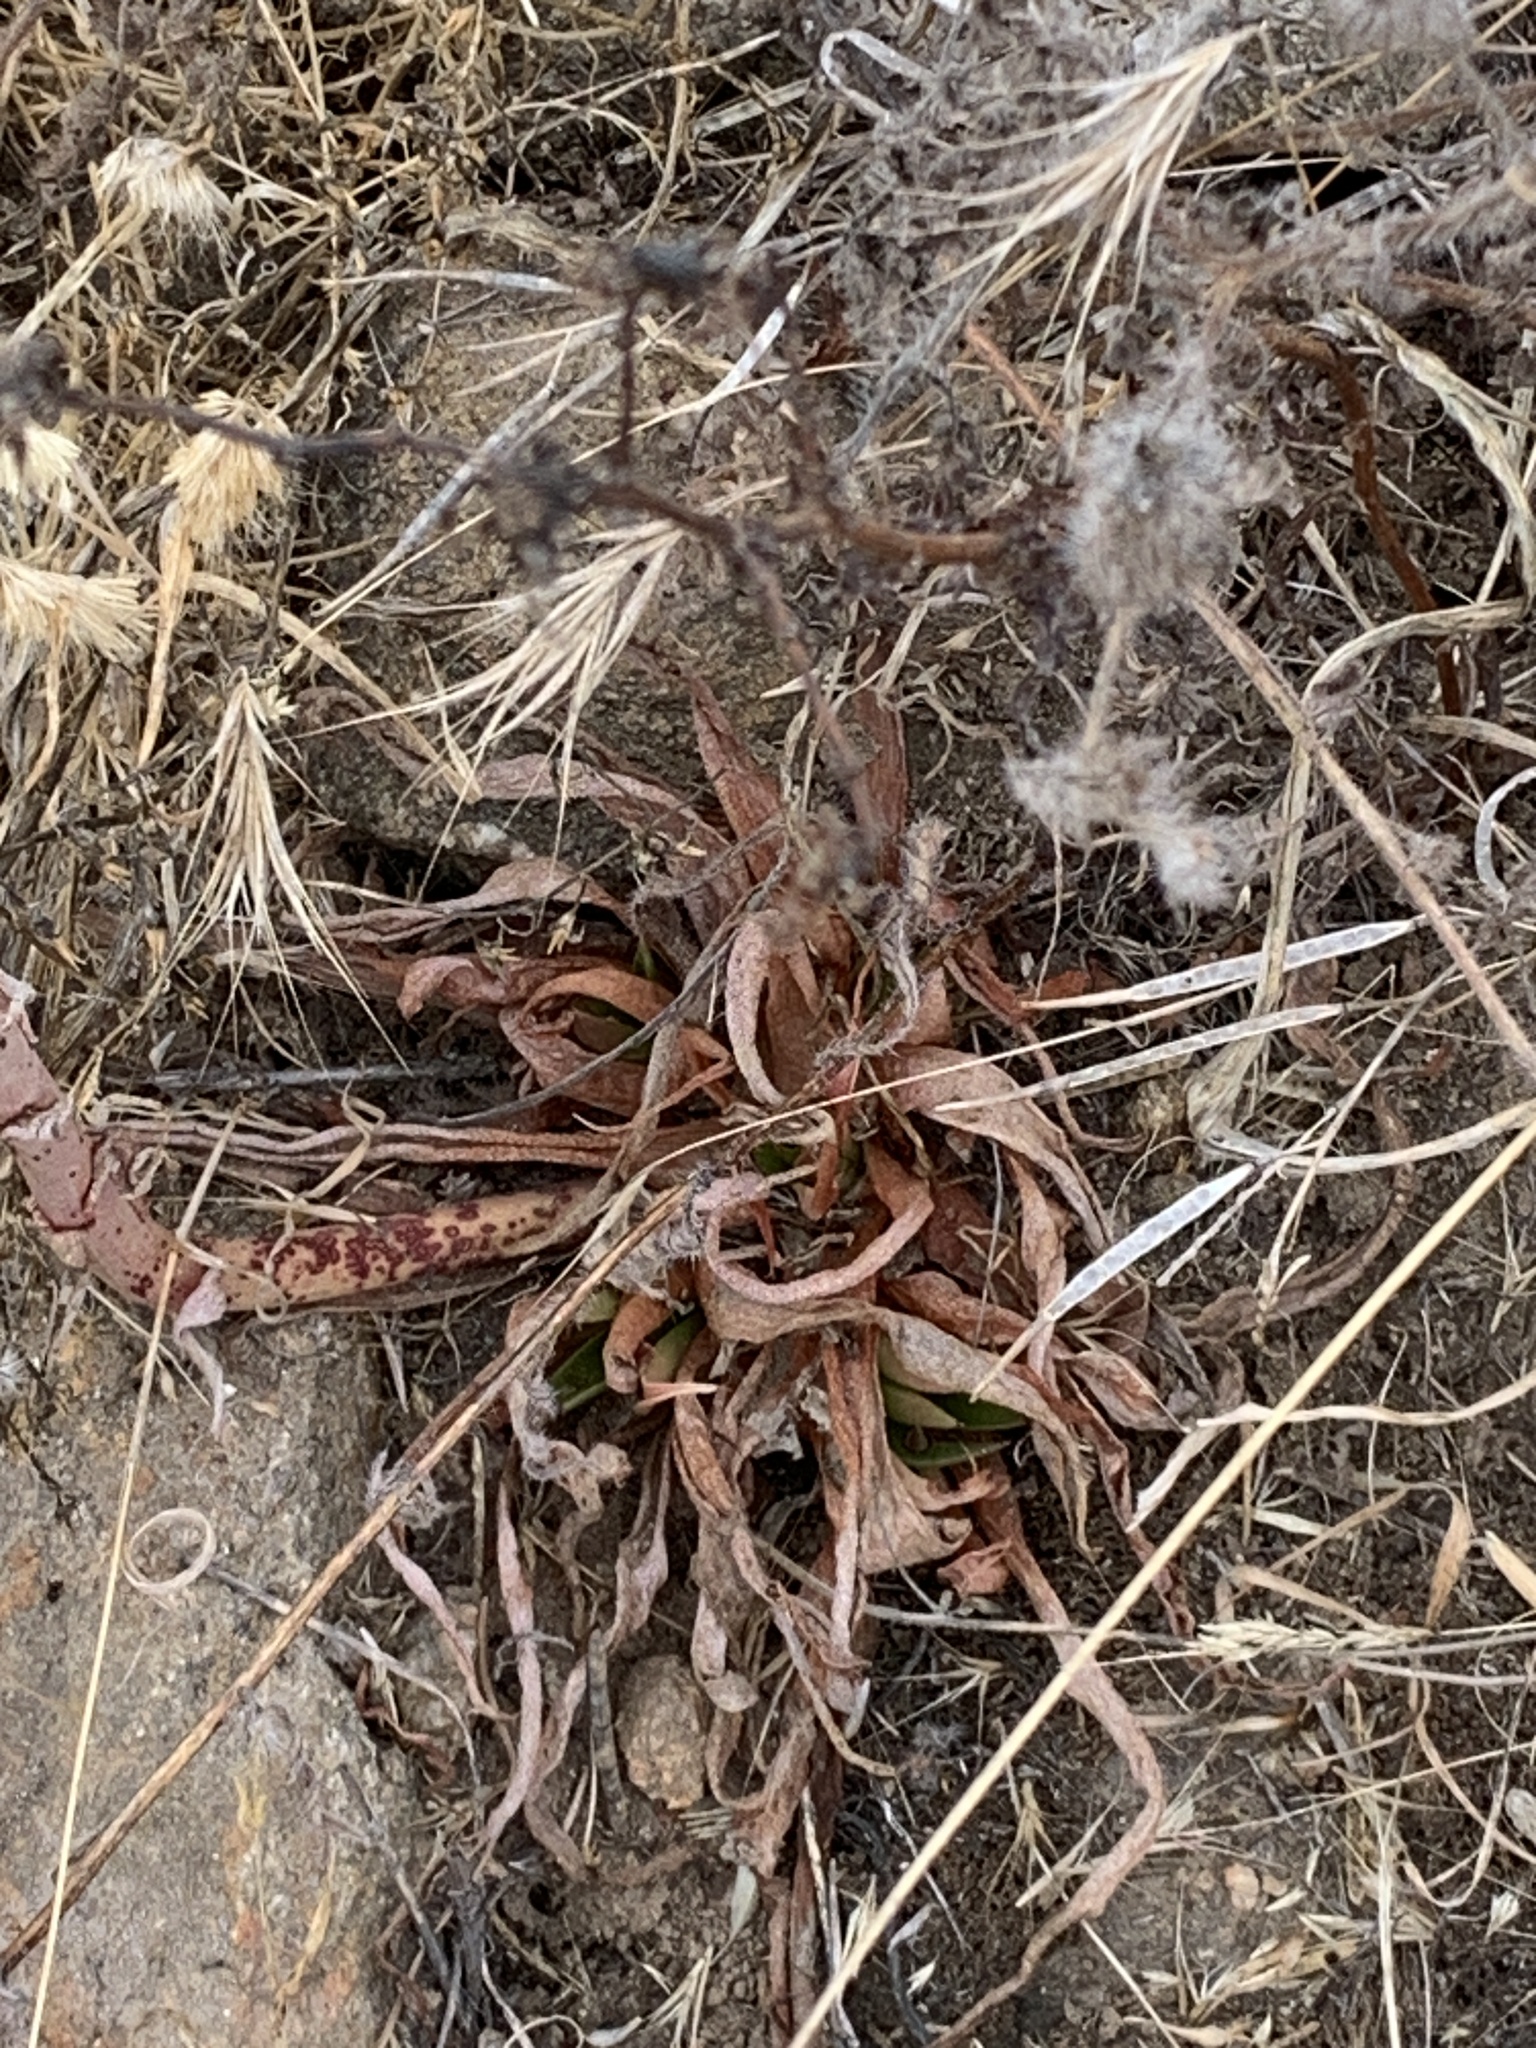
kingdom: Plantae
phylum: Tracheophyta
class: Magnoliopsida
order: Saxifragales
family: Crassulaceae
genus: Dudleya
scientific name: Dudleya saxosa
